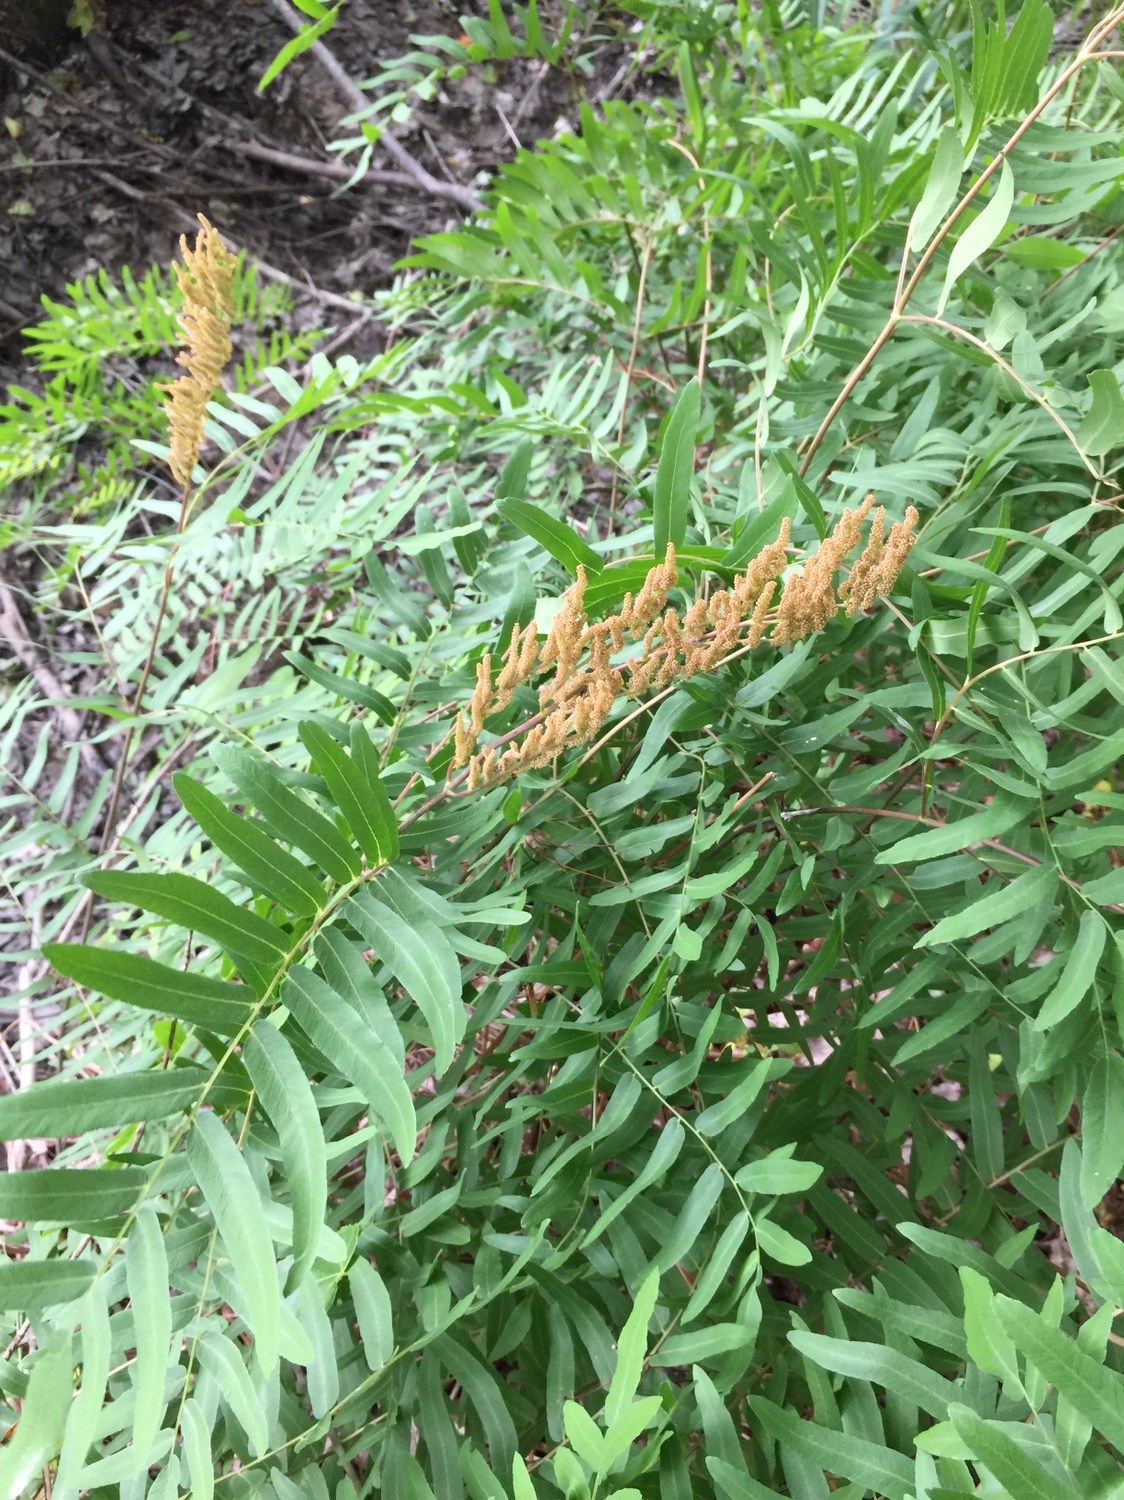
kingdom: Plantae
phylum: Tracheophyta
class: Polypodiopsida
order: Osmundales
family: Osmundaceae
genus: Osmunda
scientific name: Osmunda spectabilis
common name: American royal fern
